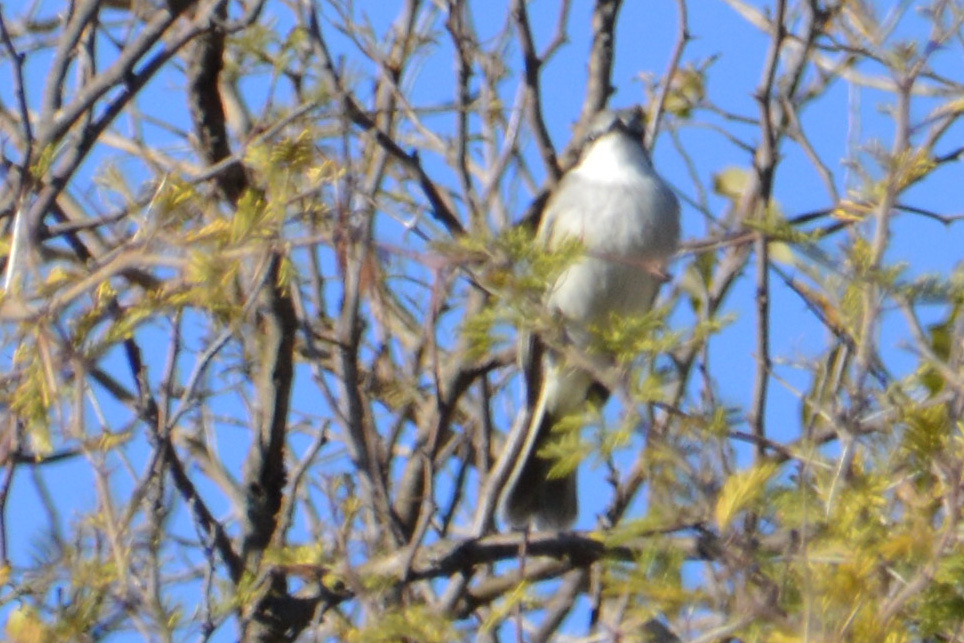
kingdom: Animalia
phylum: Chordata
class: Aves
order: Passeriformes
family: Tyrannidae
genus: Suiriri
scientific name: Suiriri suiriri
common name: Suiriri flycatcher
